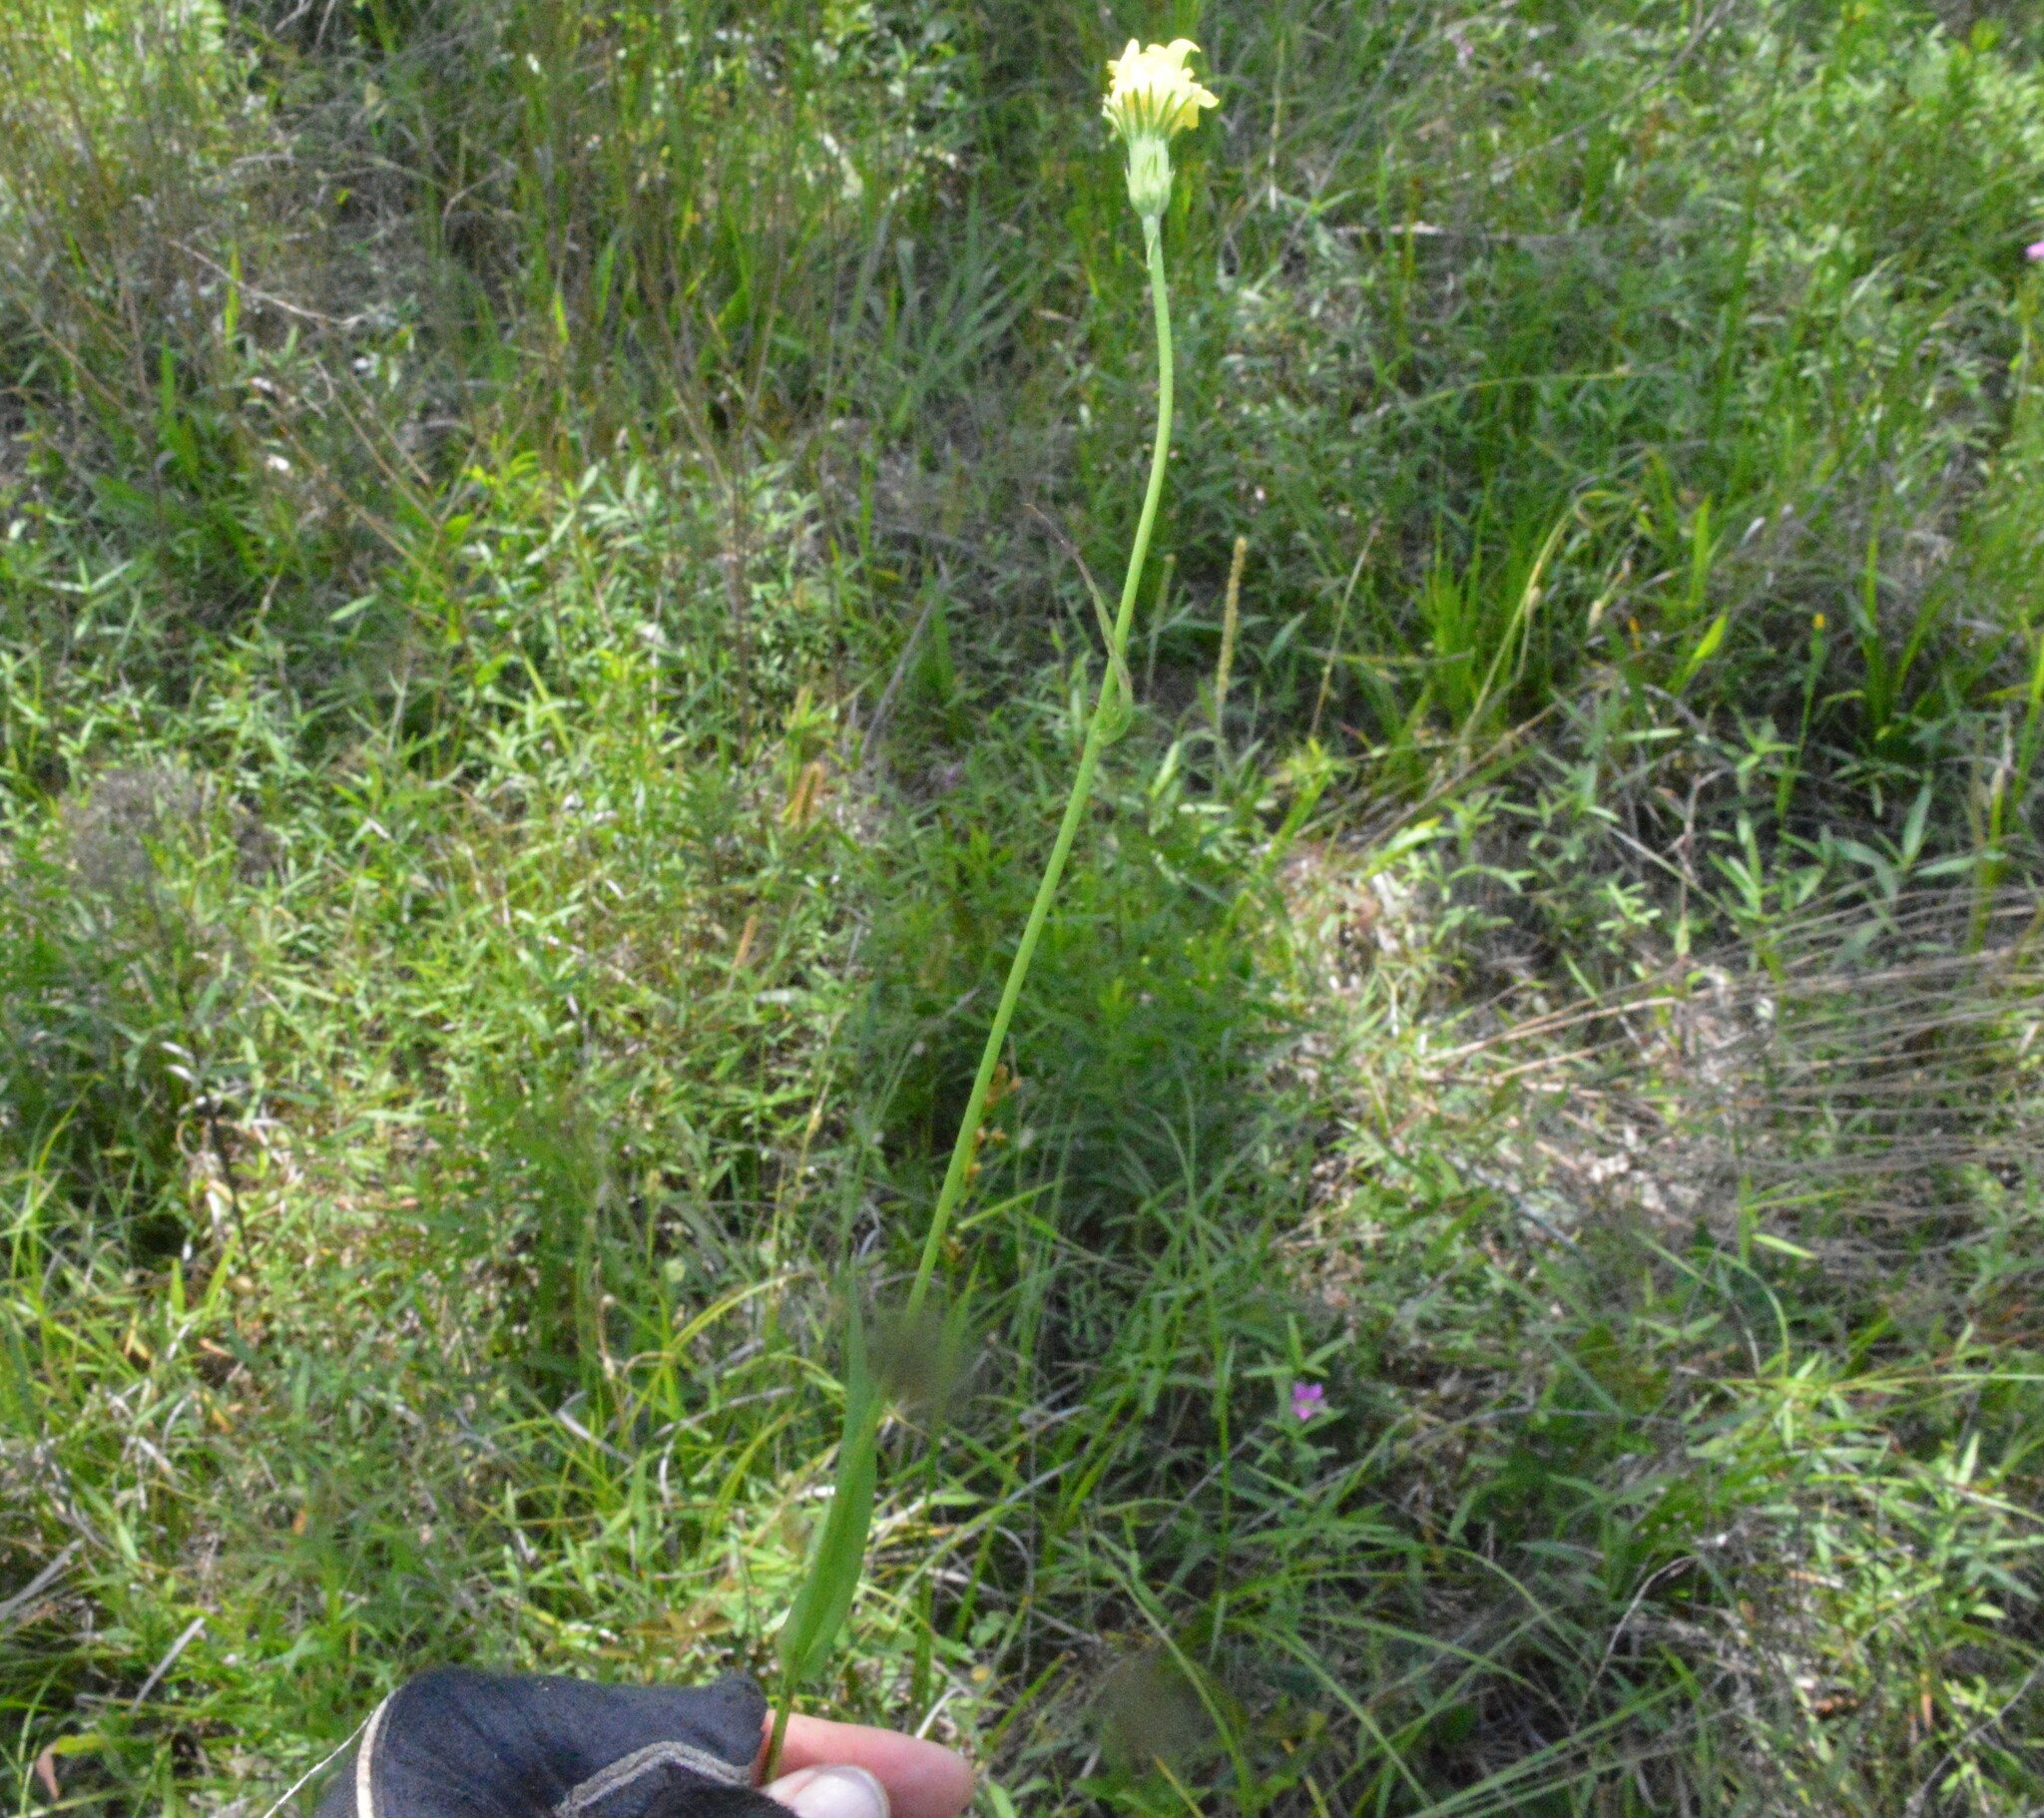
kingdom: Plantae
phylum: Tracheophyta
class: Magnoliopsida
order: Asterales
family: Asteraceae
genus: Pyrrhopappus
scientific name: Pyrrhopappus carolinianus
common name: Carolina desert-chicory
